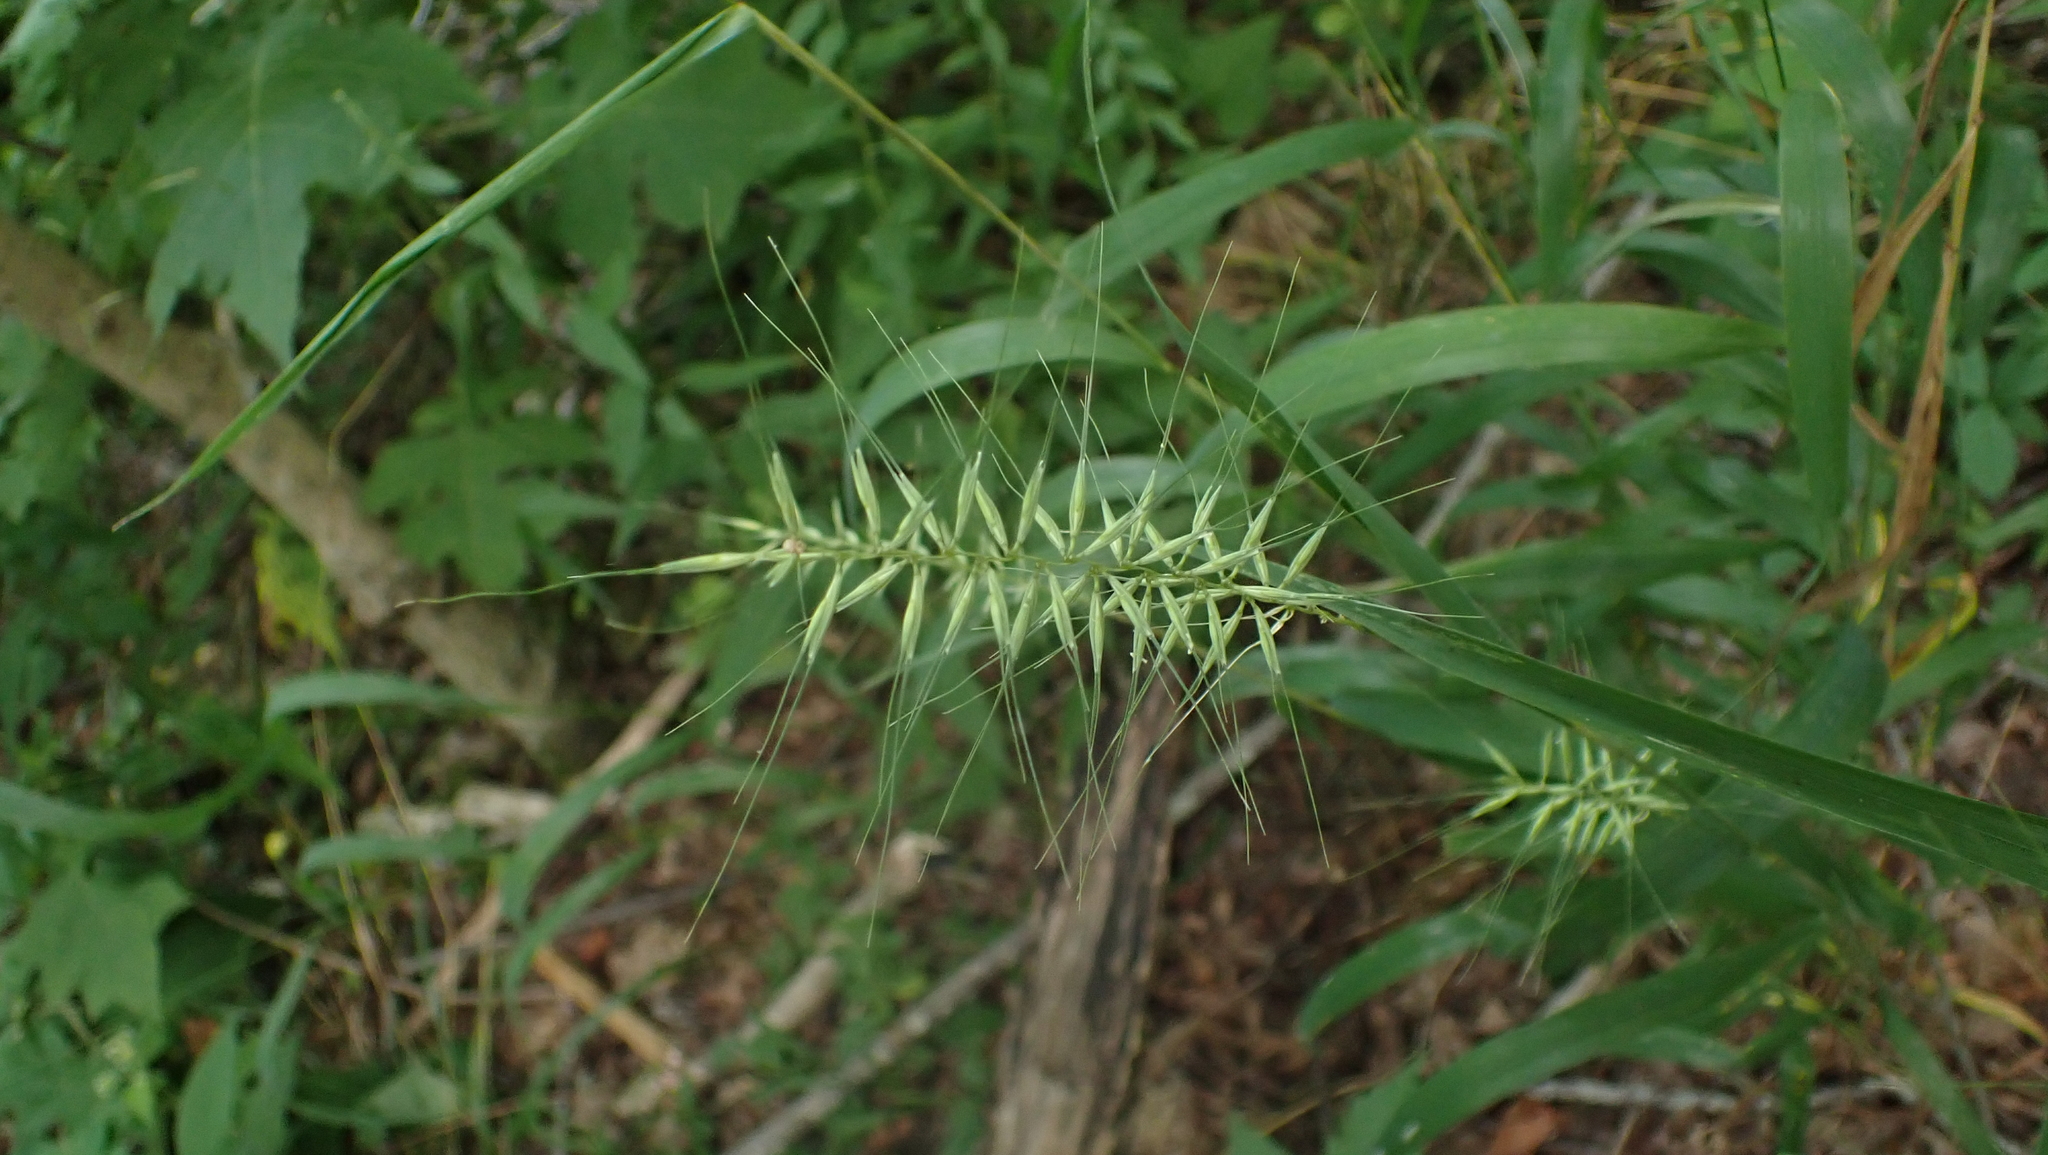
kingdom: Plantae
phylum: Tracheophyta
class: Liliopsida
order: Poales
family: Poaceae
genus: Elymus
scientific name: Elymus hystrix
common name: Bottlebrush grass
